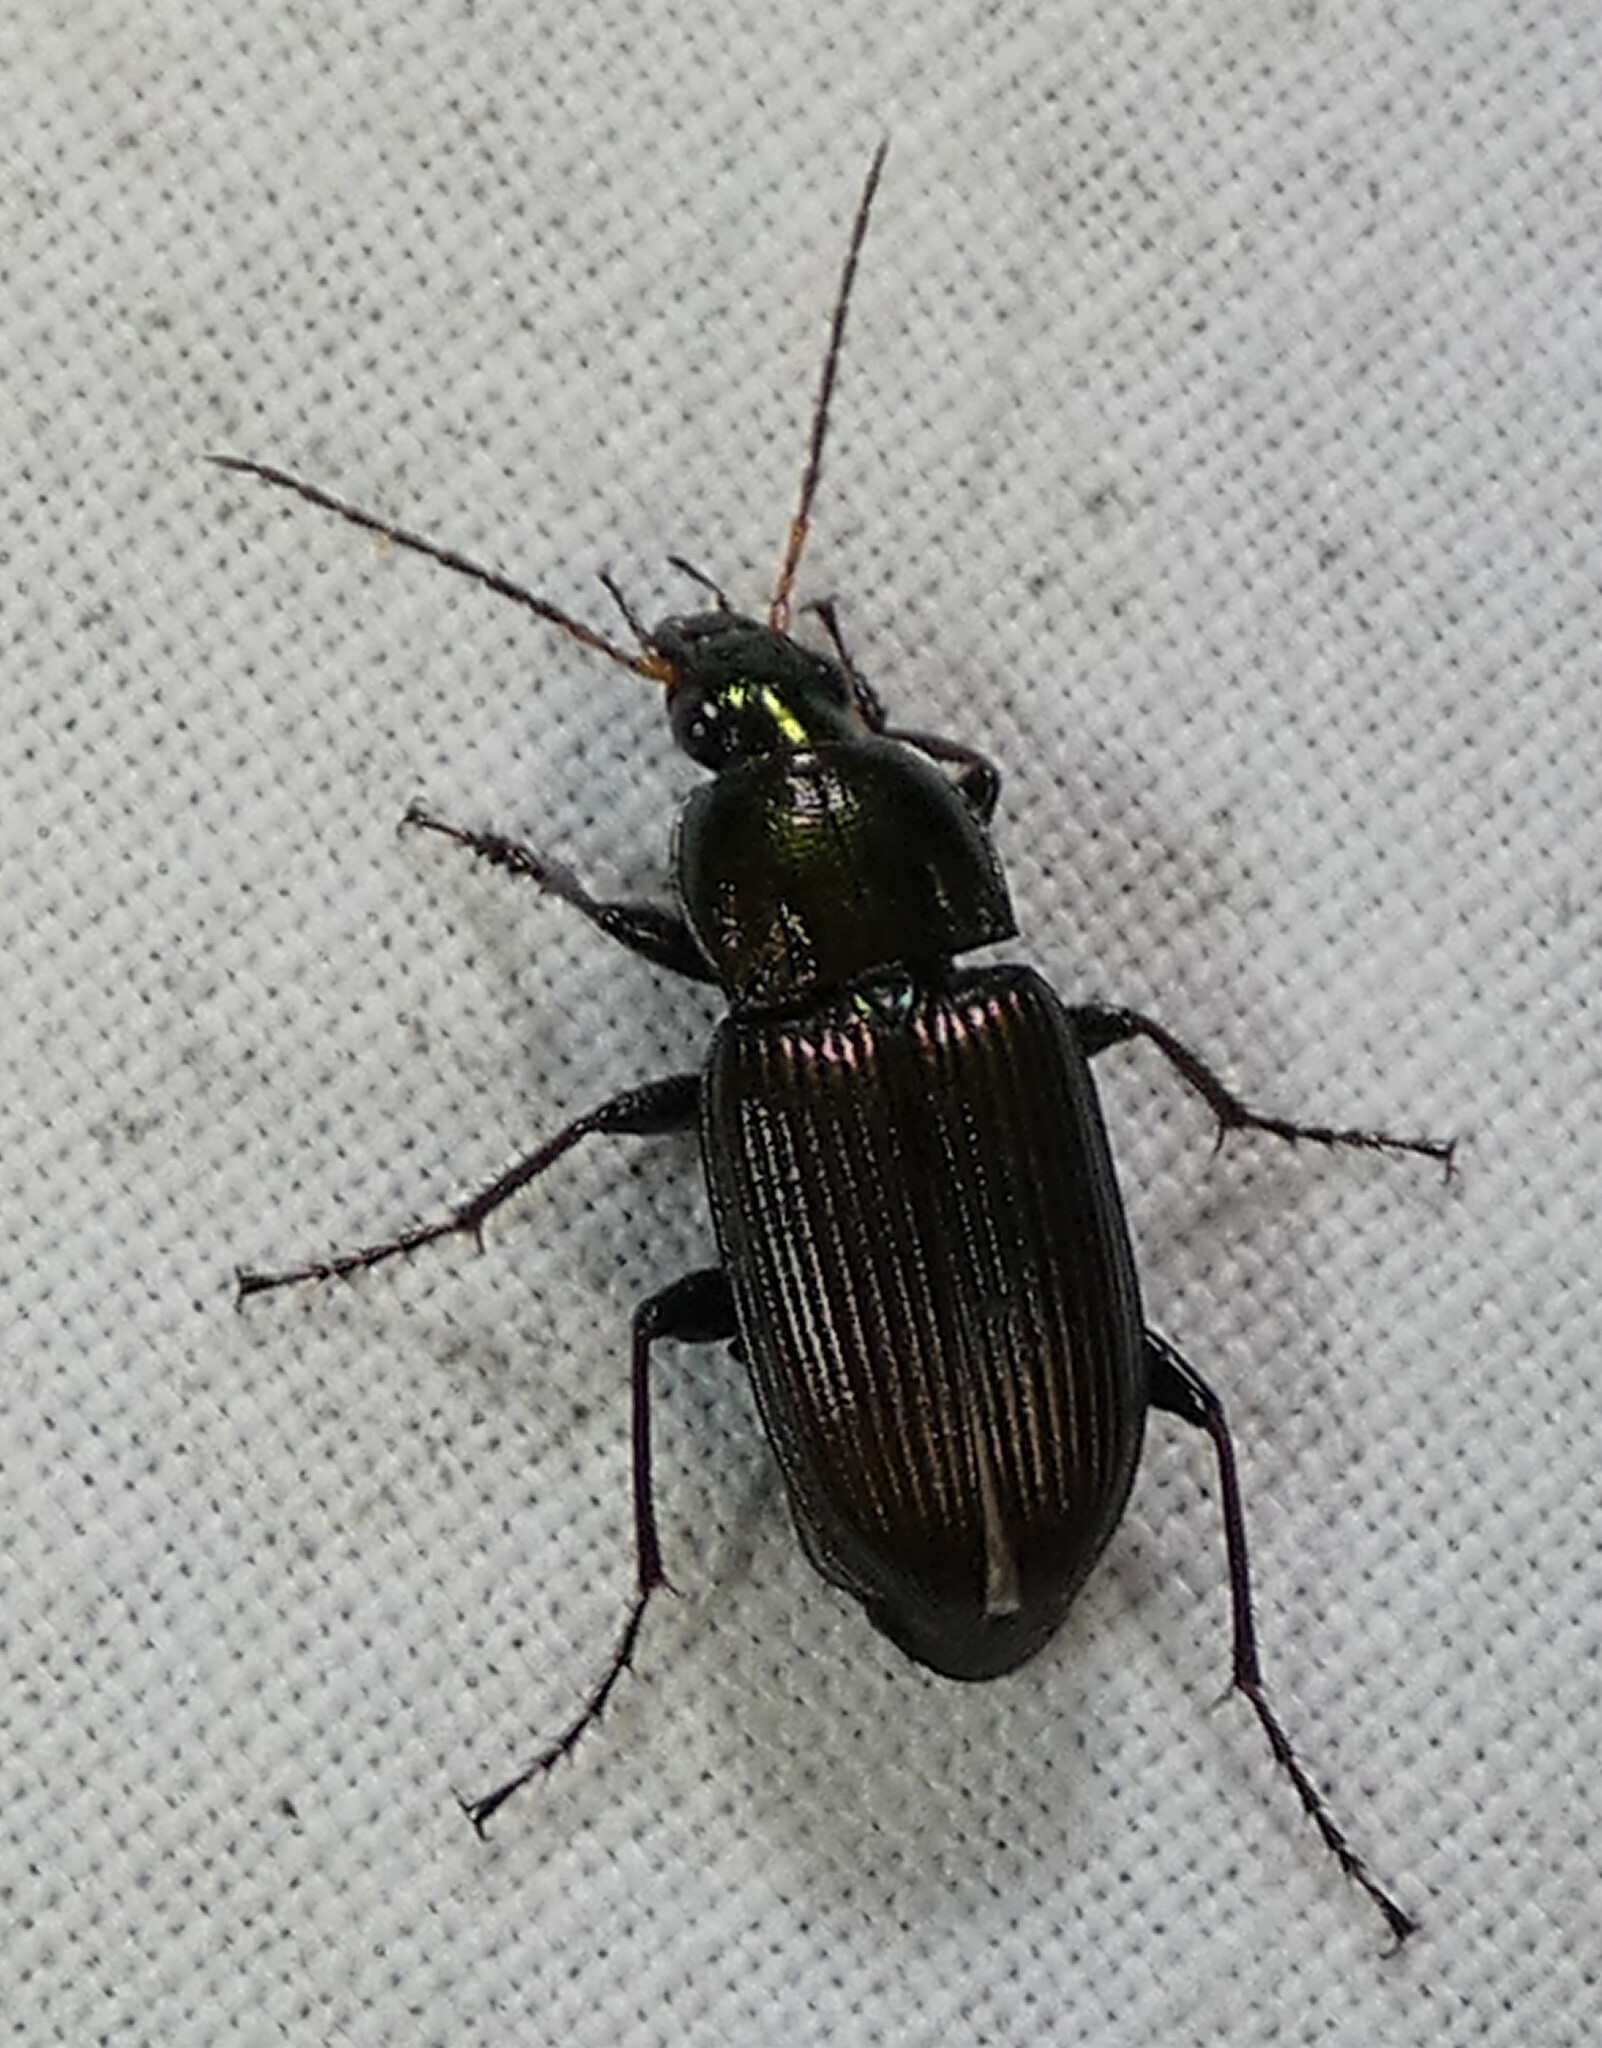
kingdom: Animalia
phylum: Arthropoda
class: Insecta
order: Coleoptera
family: Carabidae
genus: Poecilus
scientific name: Poecilus chalcites
